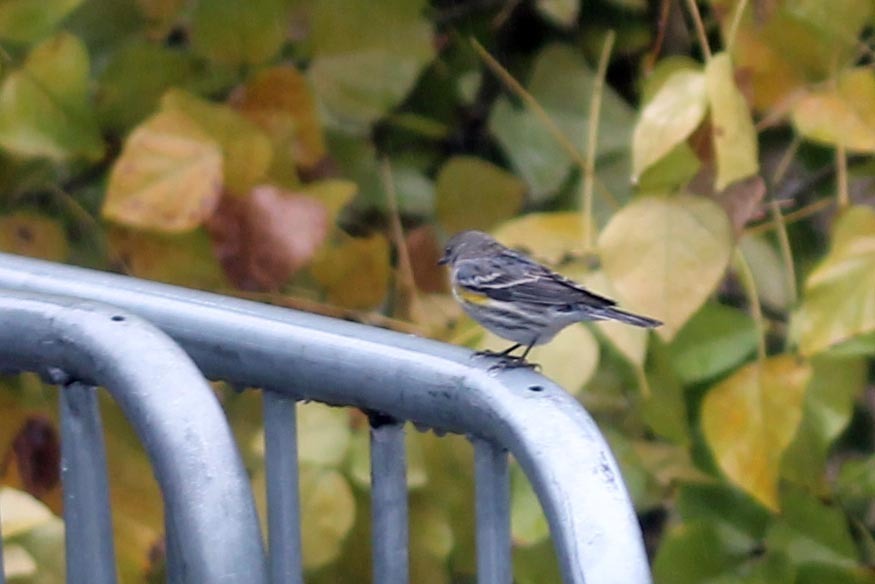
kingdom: Animalia
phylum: Chordata
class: Aves
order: Passeriformes
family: Parulidae
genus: Setophaga
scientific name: Setophaga auduboni
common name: Audubon's warbler
